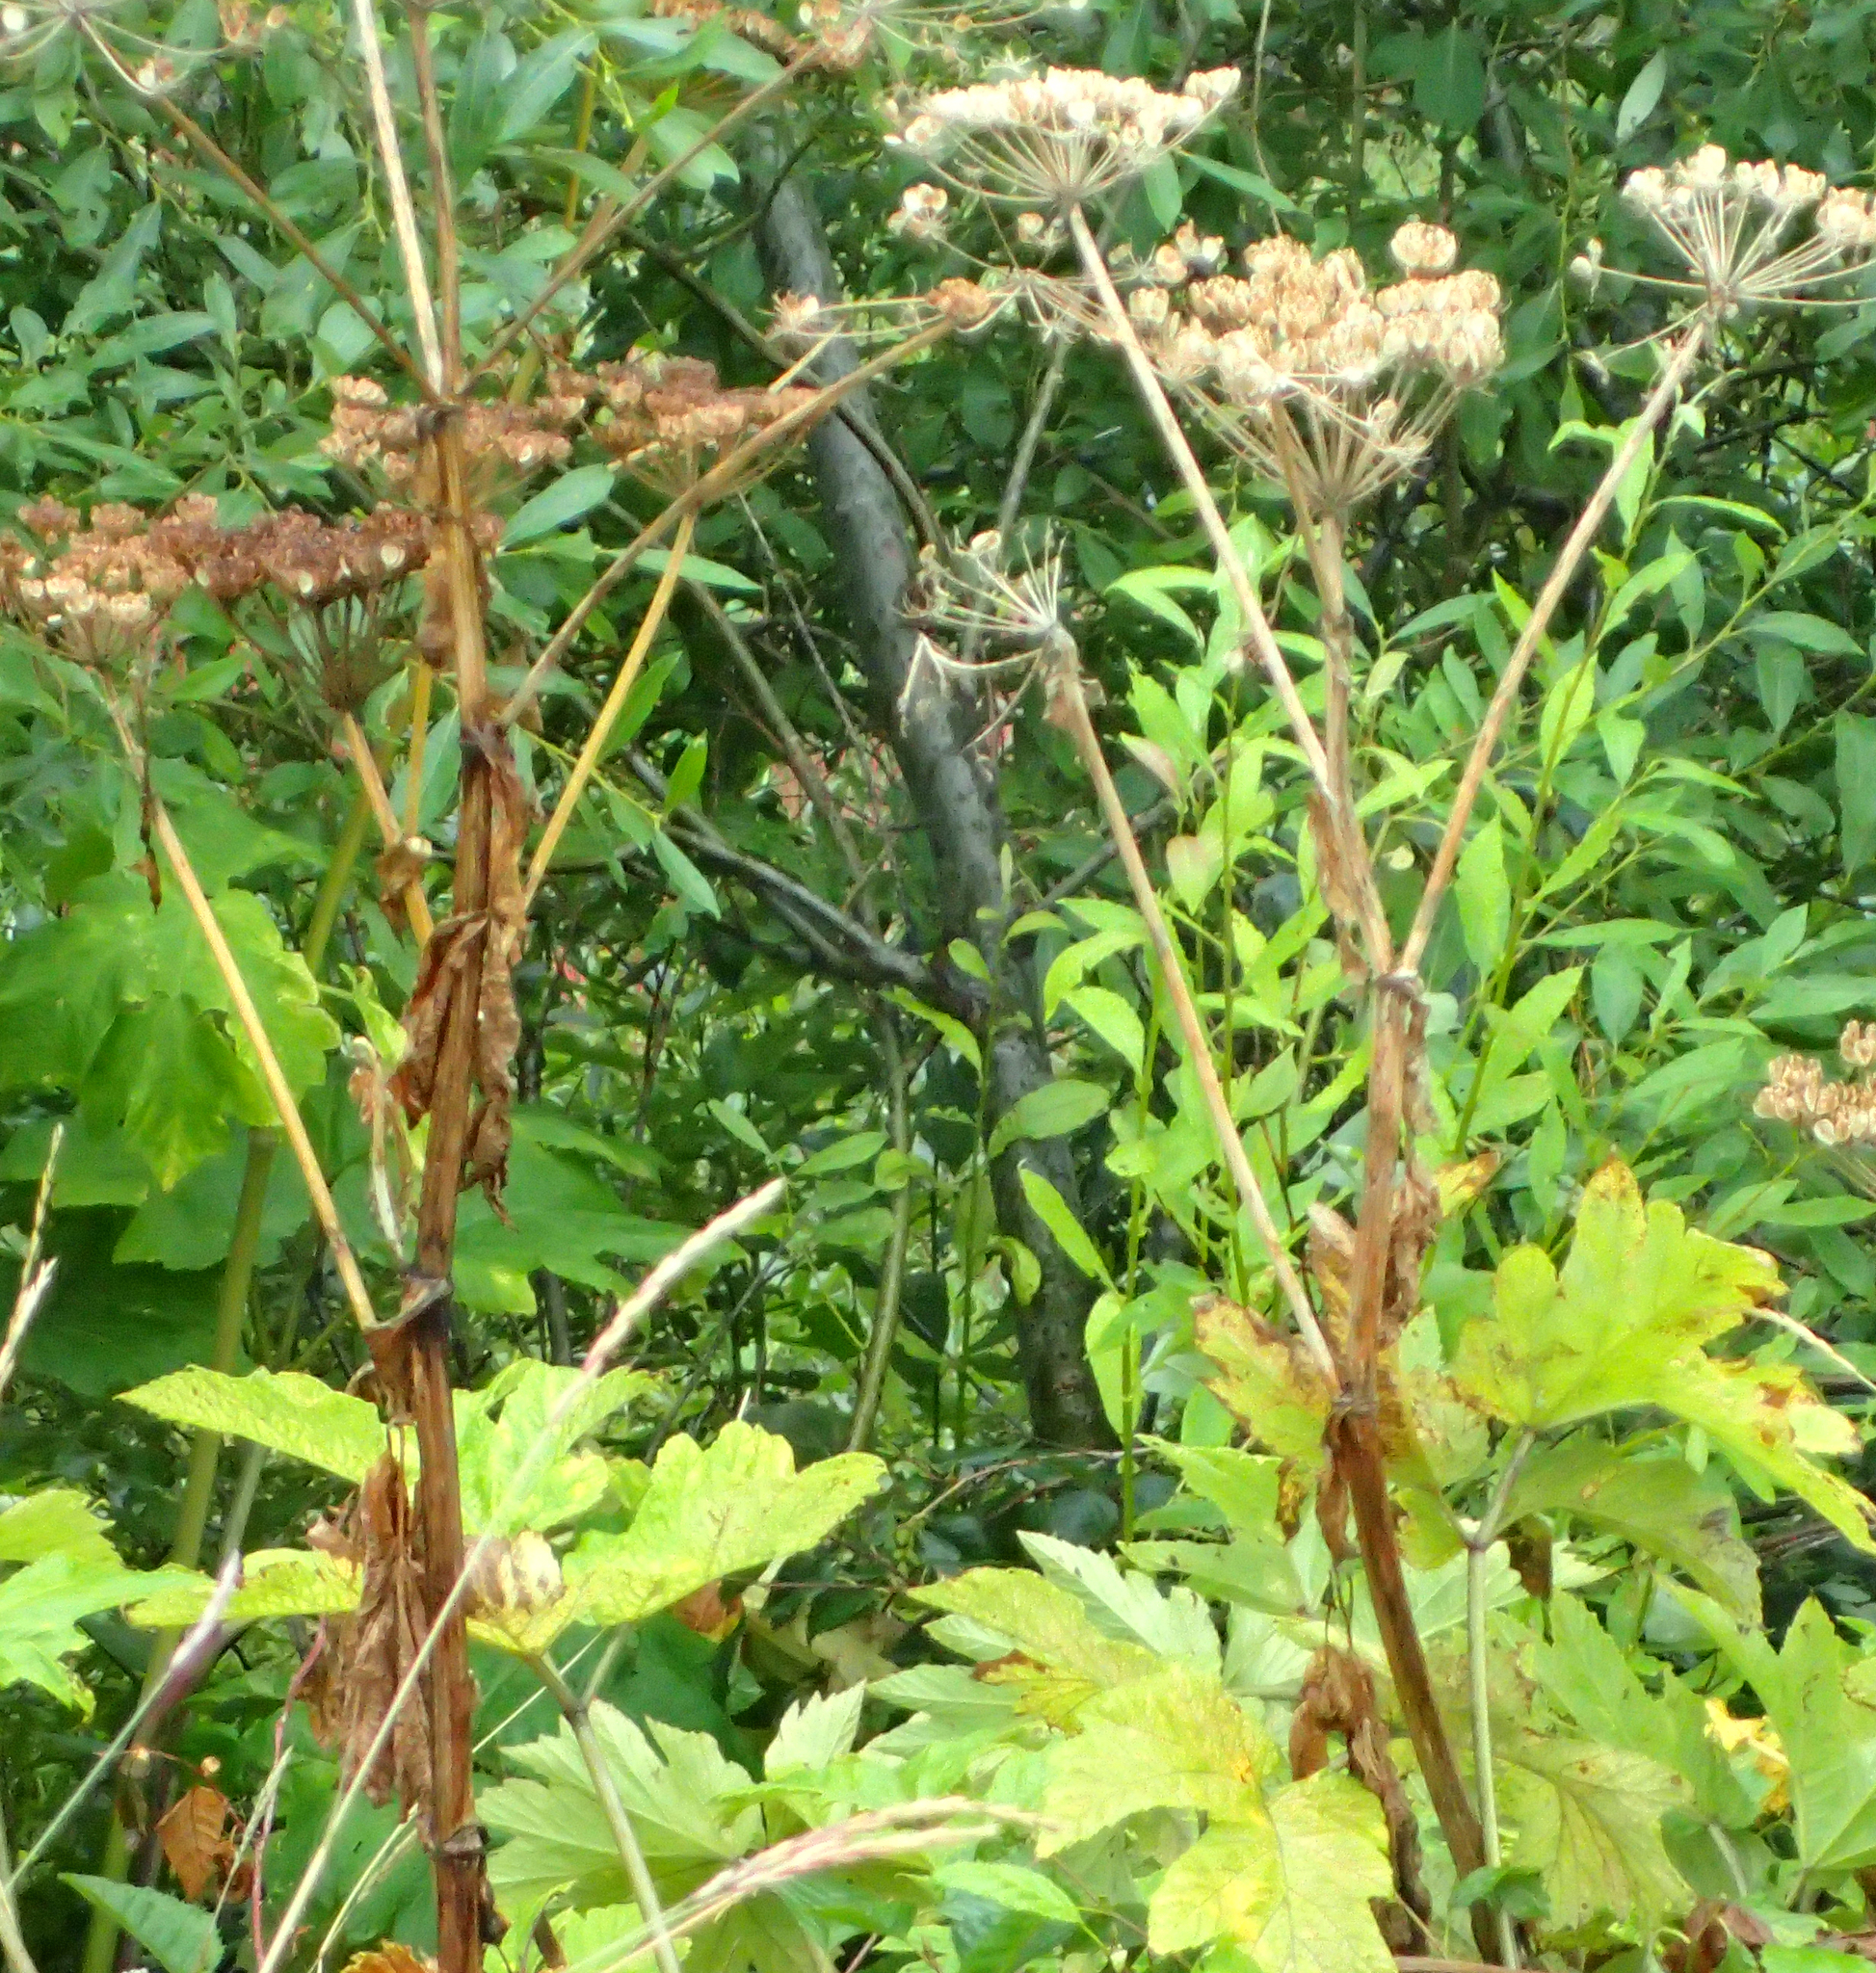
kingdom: Plantae
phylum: Tracheophyta
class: Magnoliopsida
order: Apiales
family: Apiaceae
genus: Heracleum
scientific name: Heracleum maximum
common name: American cow parsnip
